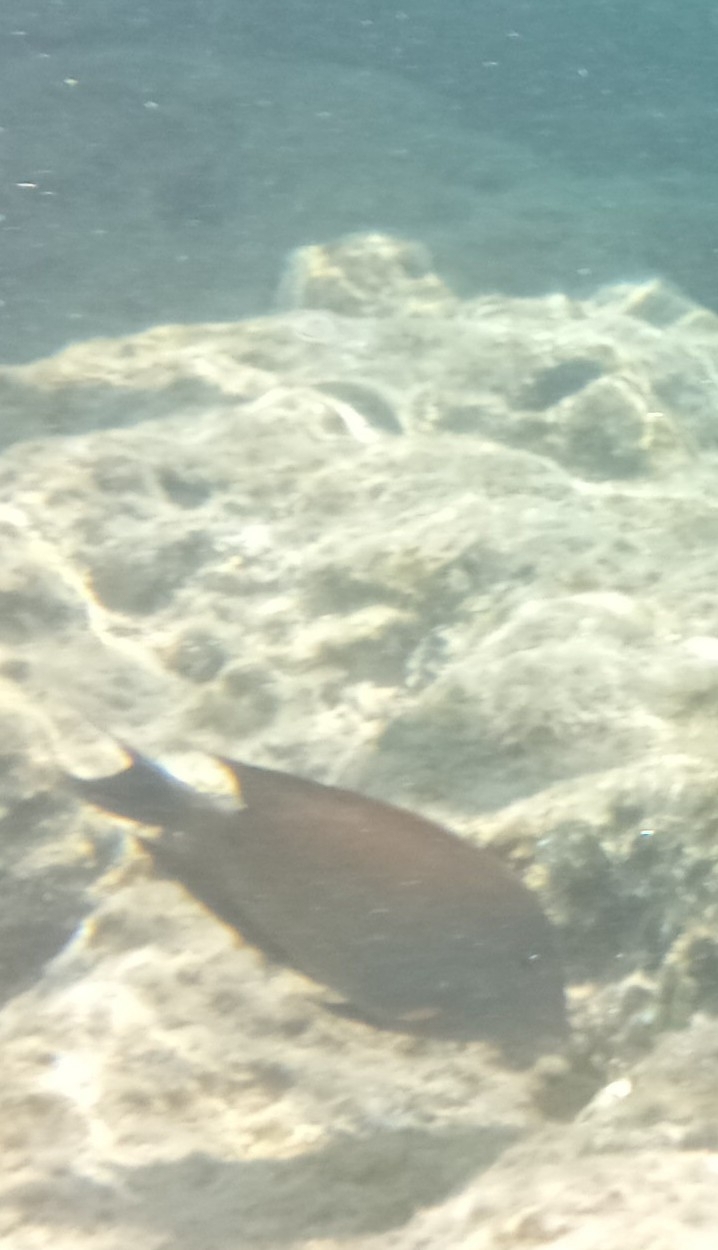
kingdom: Animalia
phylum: Chordata
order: Perciformes
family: Acanthuridae
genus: Ctenochaetus
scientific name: Ctenochaetus striatus
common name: Bristle-toothed surgeonfish
